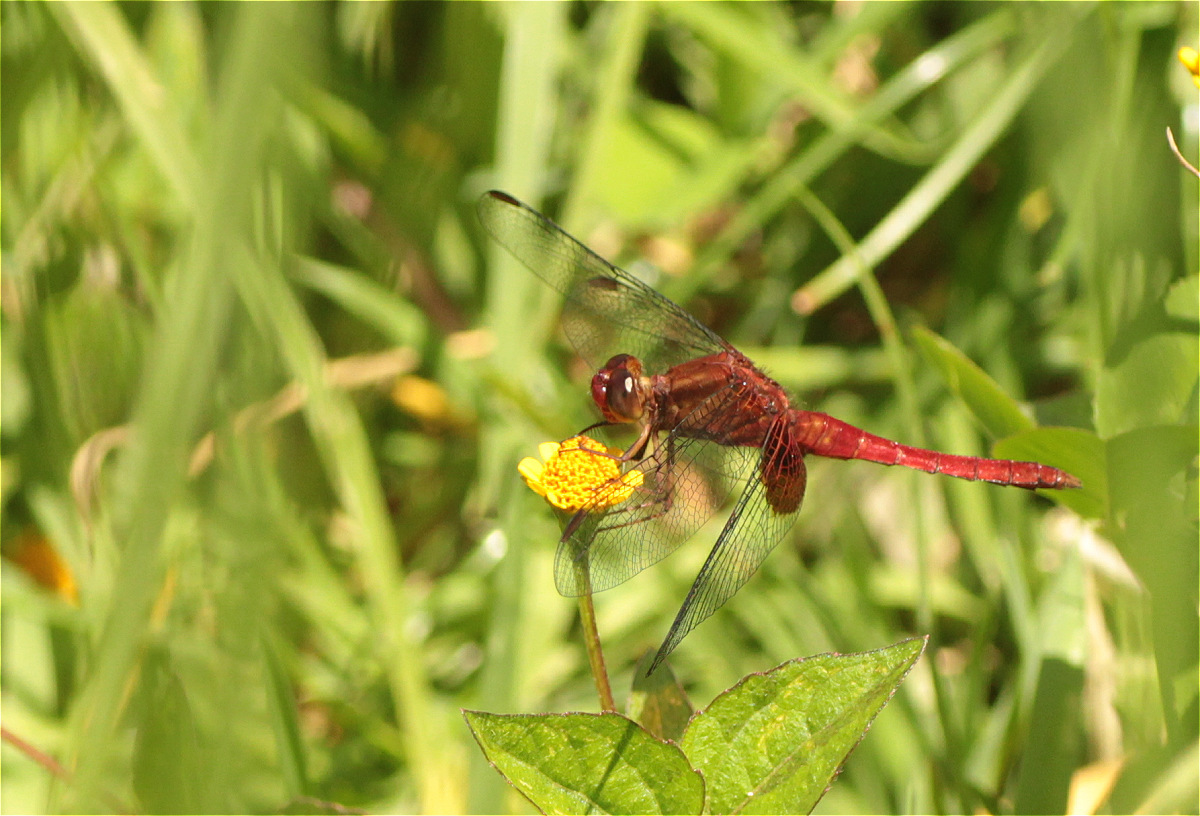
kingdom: Animalia
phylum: Arthropoda
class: Insecta
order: Odonata
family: Libellulidae
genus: Erythrodiplax
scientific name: Erythrodiplax ines
